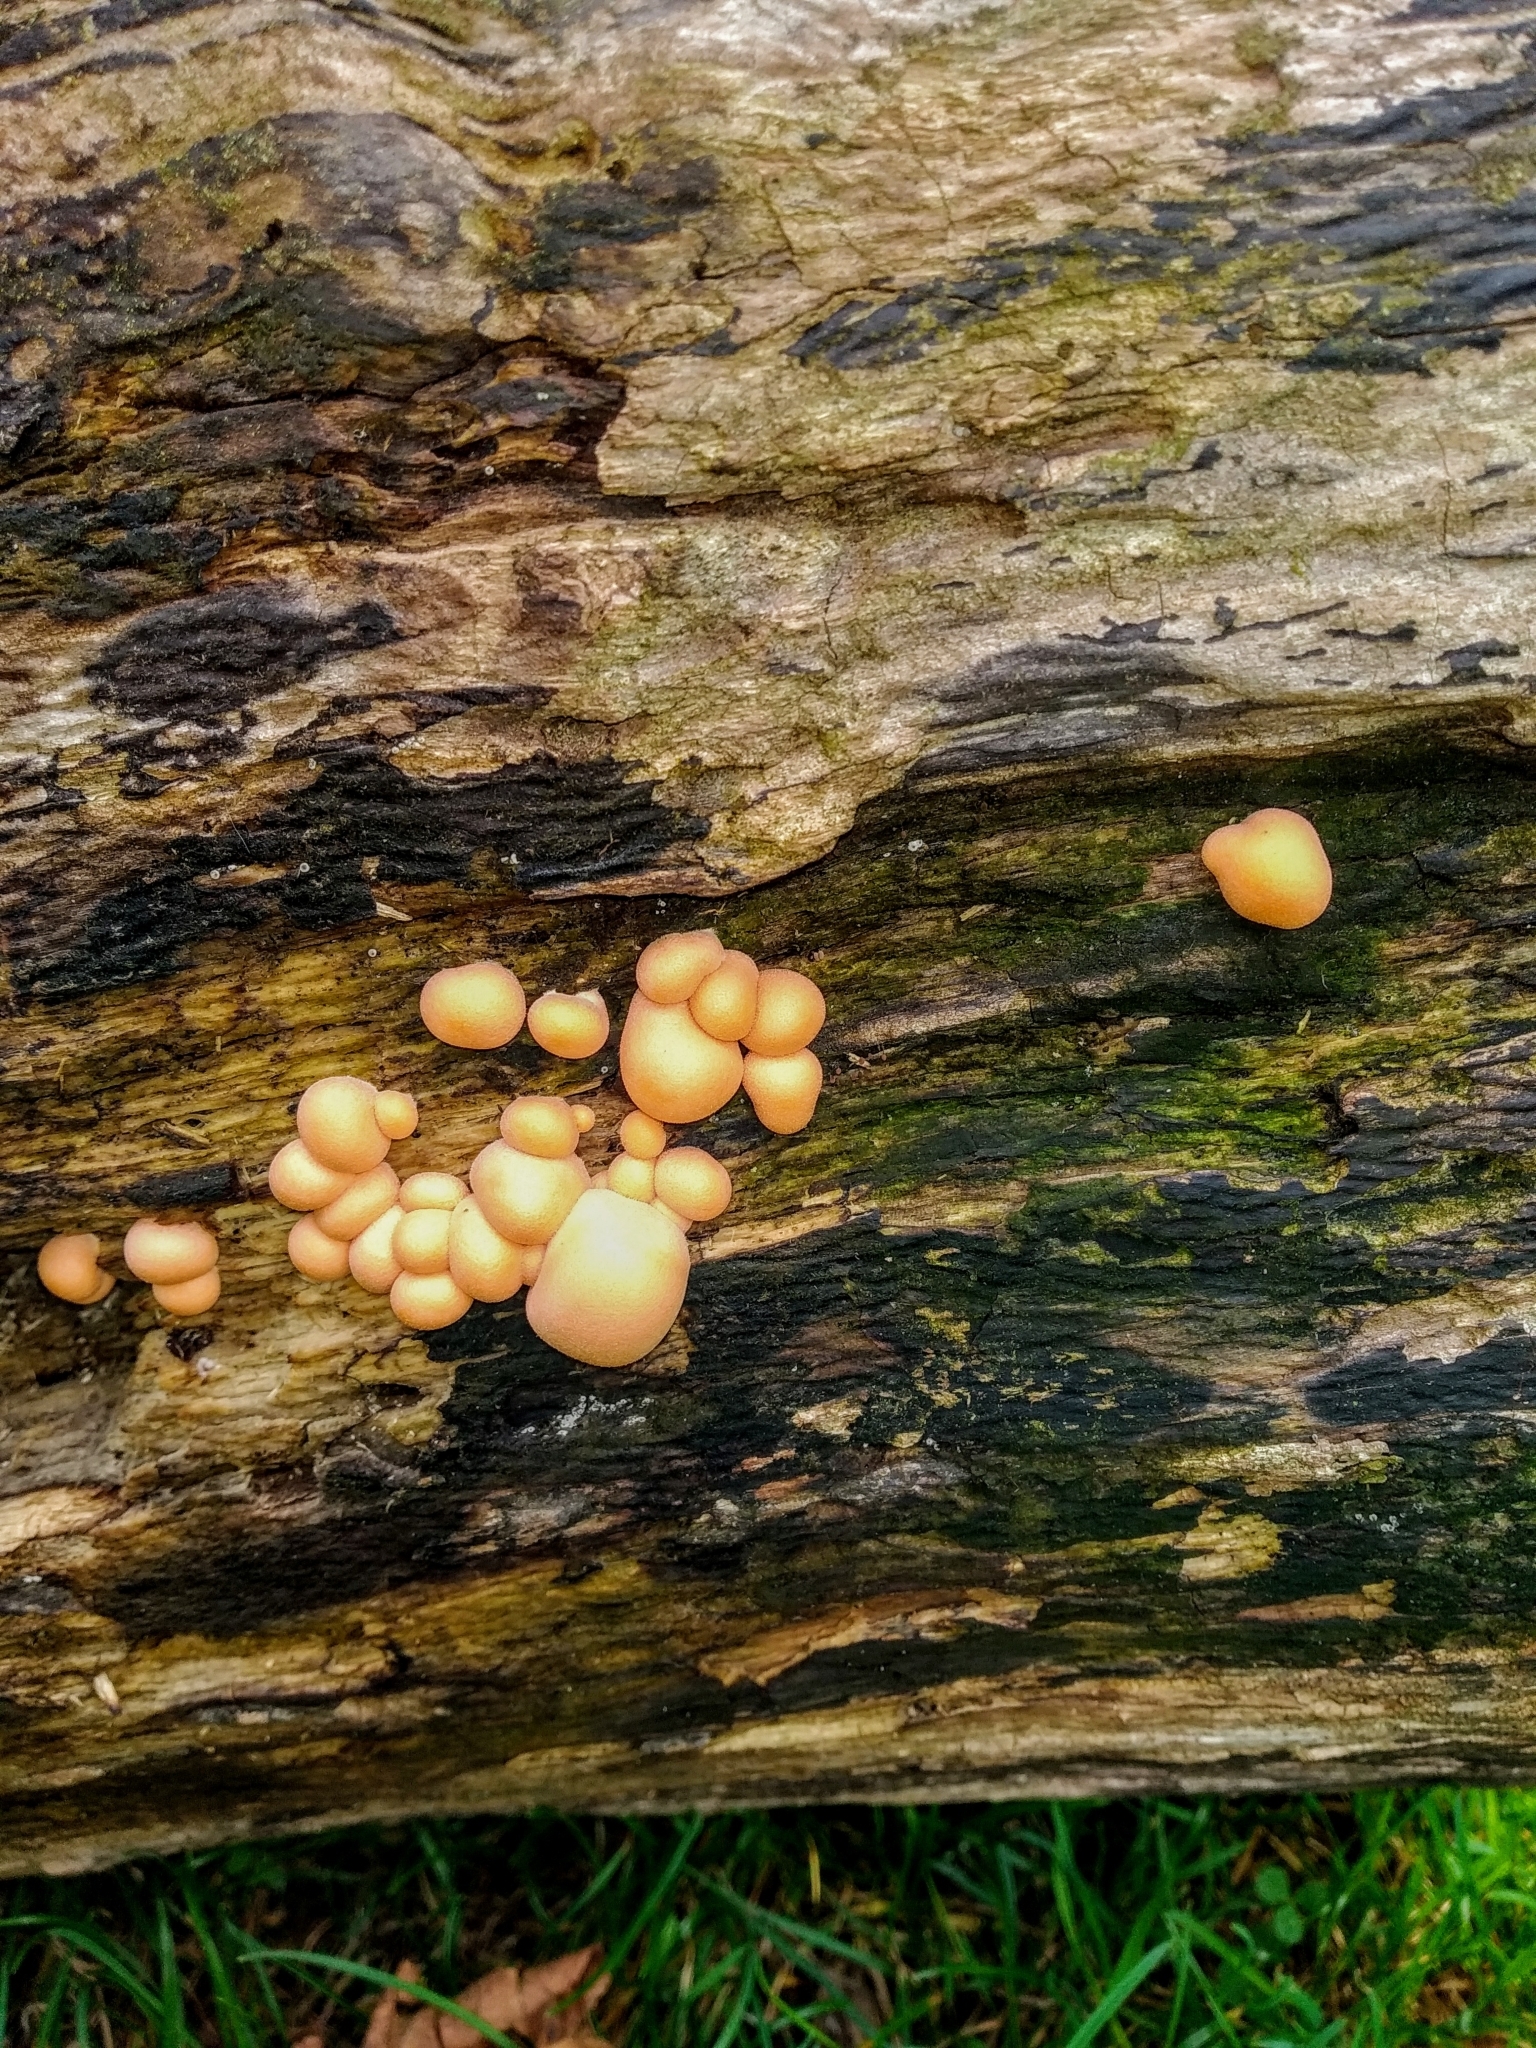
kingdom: Protozoa
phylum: Mycetozoa
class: Myxomycetes
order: Cribrariales
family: Tubiferaceae
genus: Lycogala
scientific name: Lycogala epidendrum
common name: Wolf's milk
